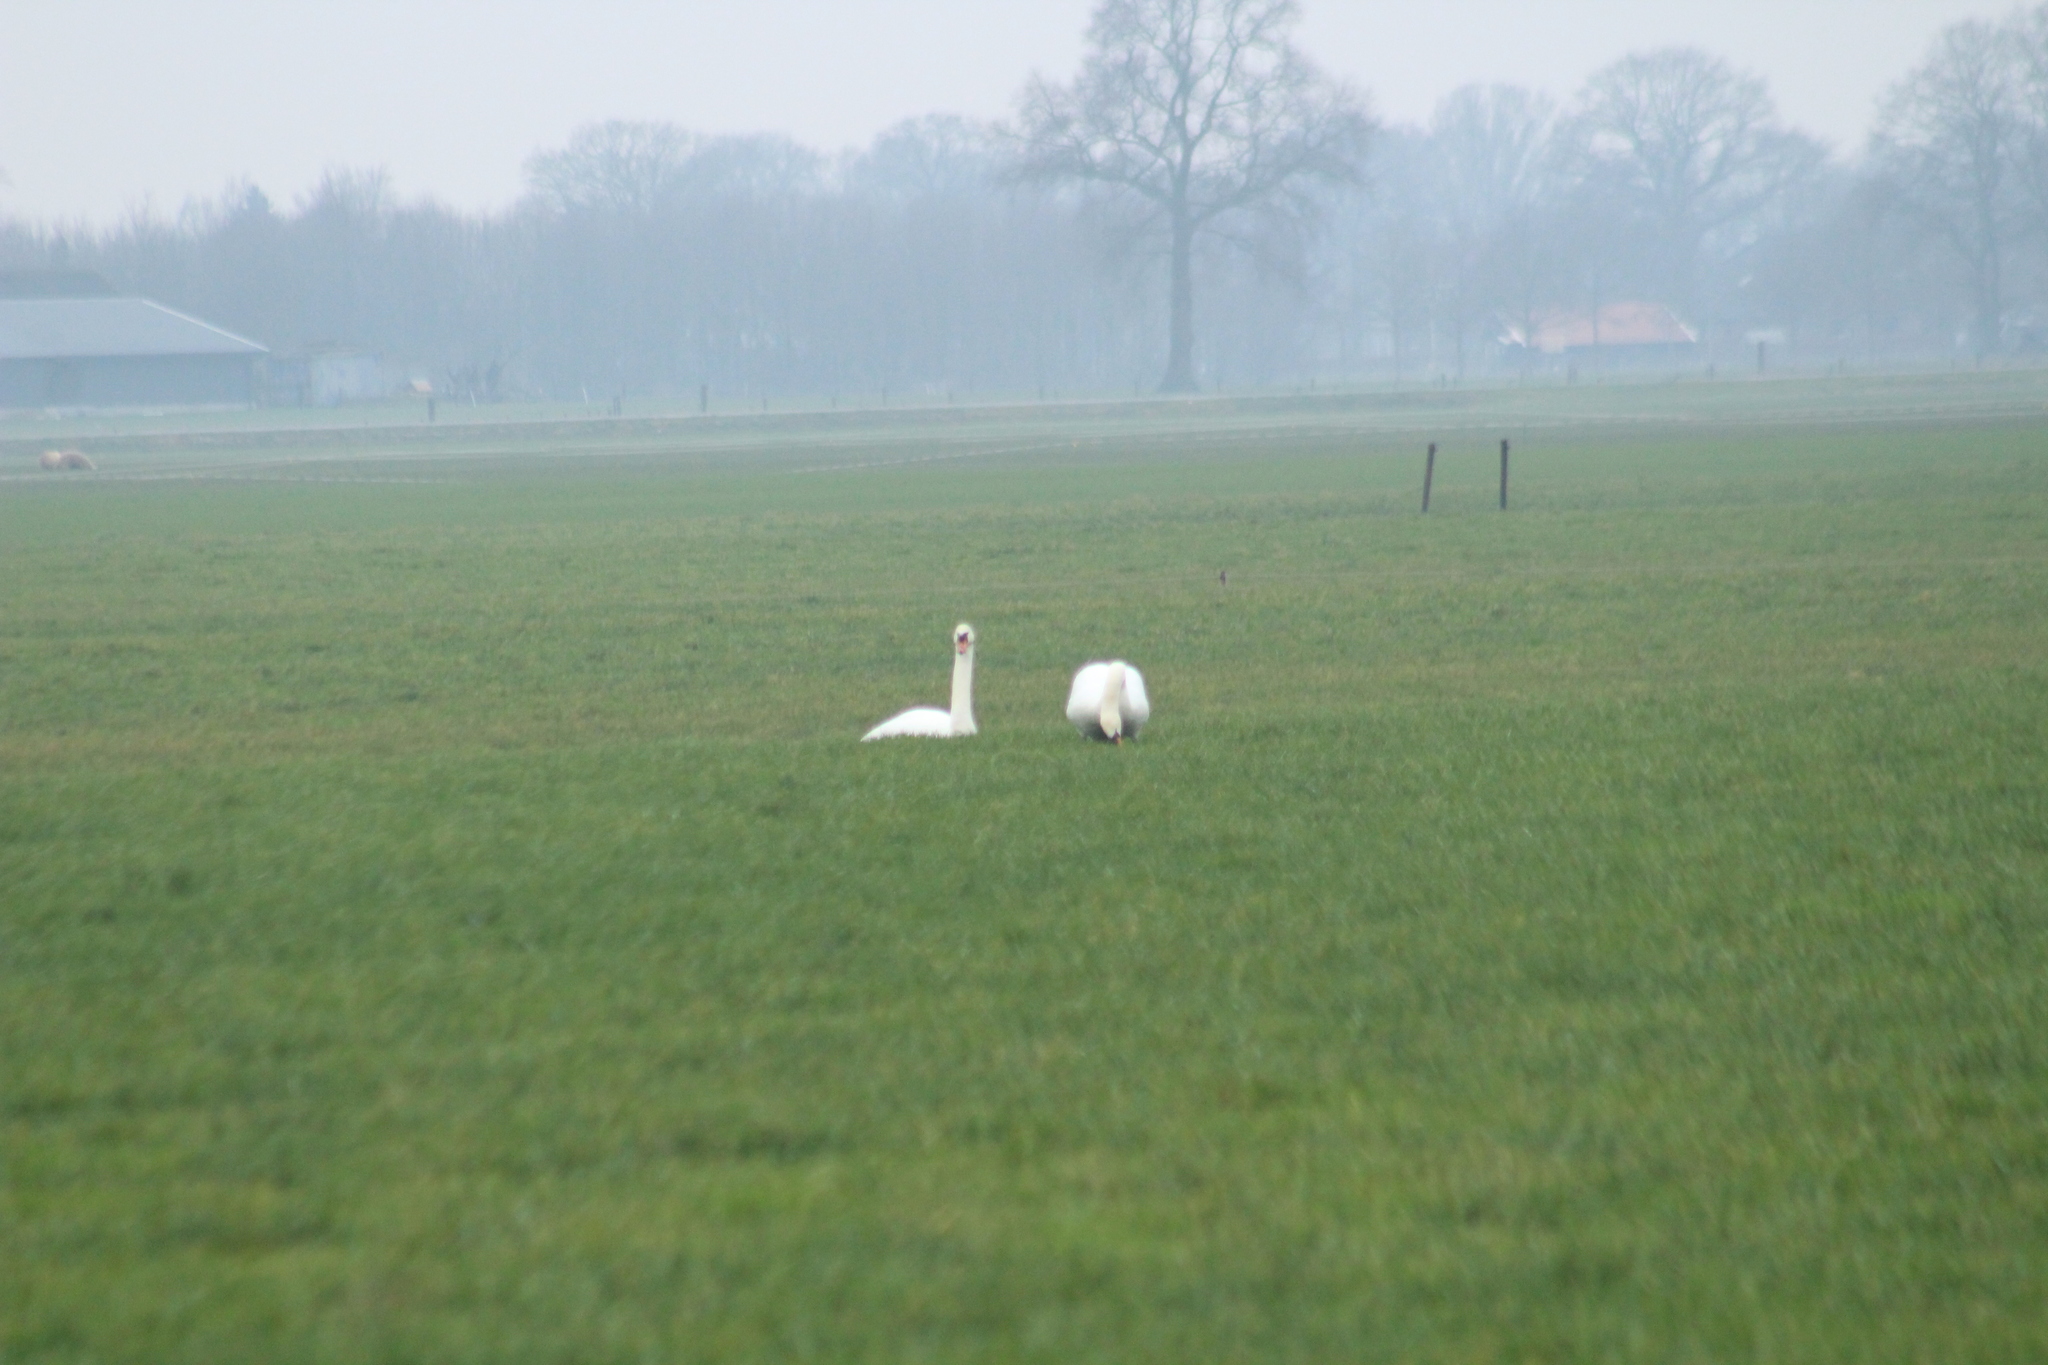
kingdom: Animalia
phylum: Chordata
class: Aves
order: Anseriformes
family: Anatidae
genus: Cygnus
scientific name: Cygnus olor
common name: Mute swan
